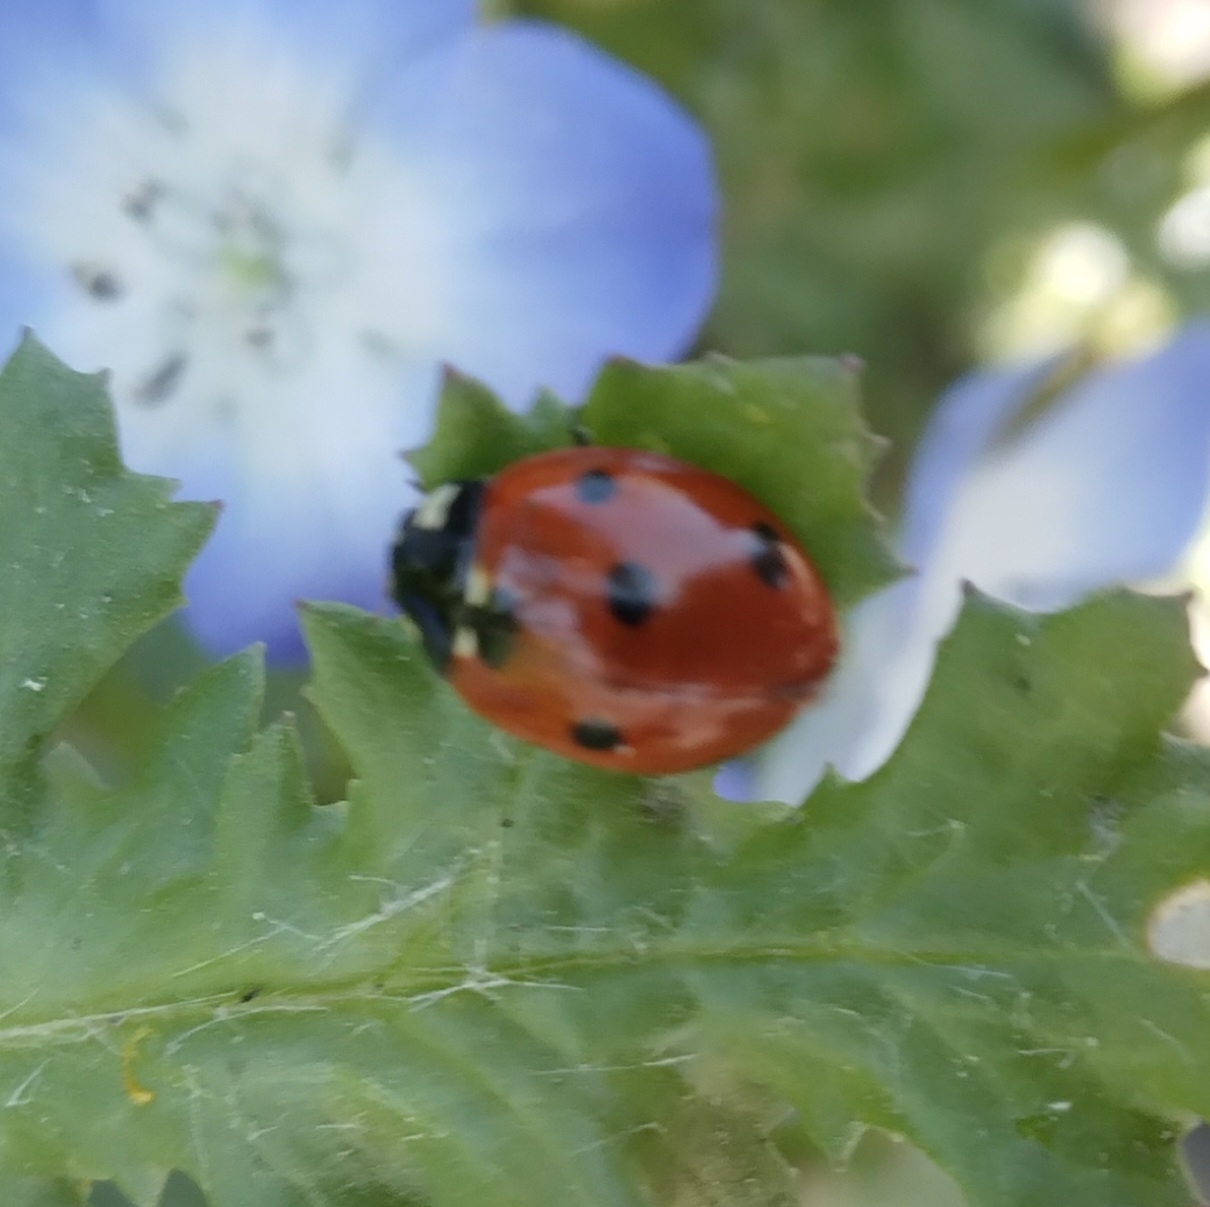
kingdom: Animalia
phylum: Arthropoda
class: Insecta
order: Coleoptera
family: Coccinellidae
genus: Coccinella
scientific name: Coccinella septempunctata
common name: Sevenspotted lady beetle
